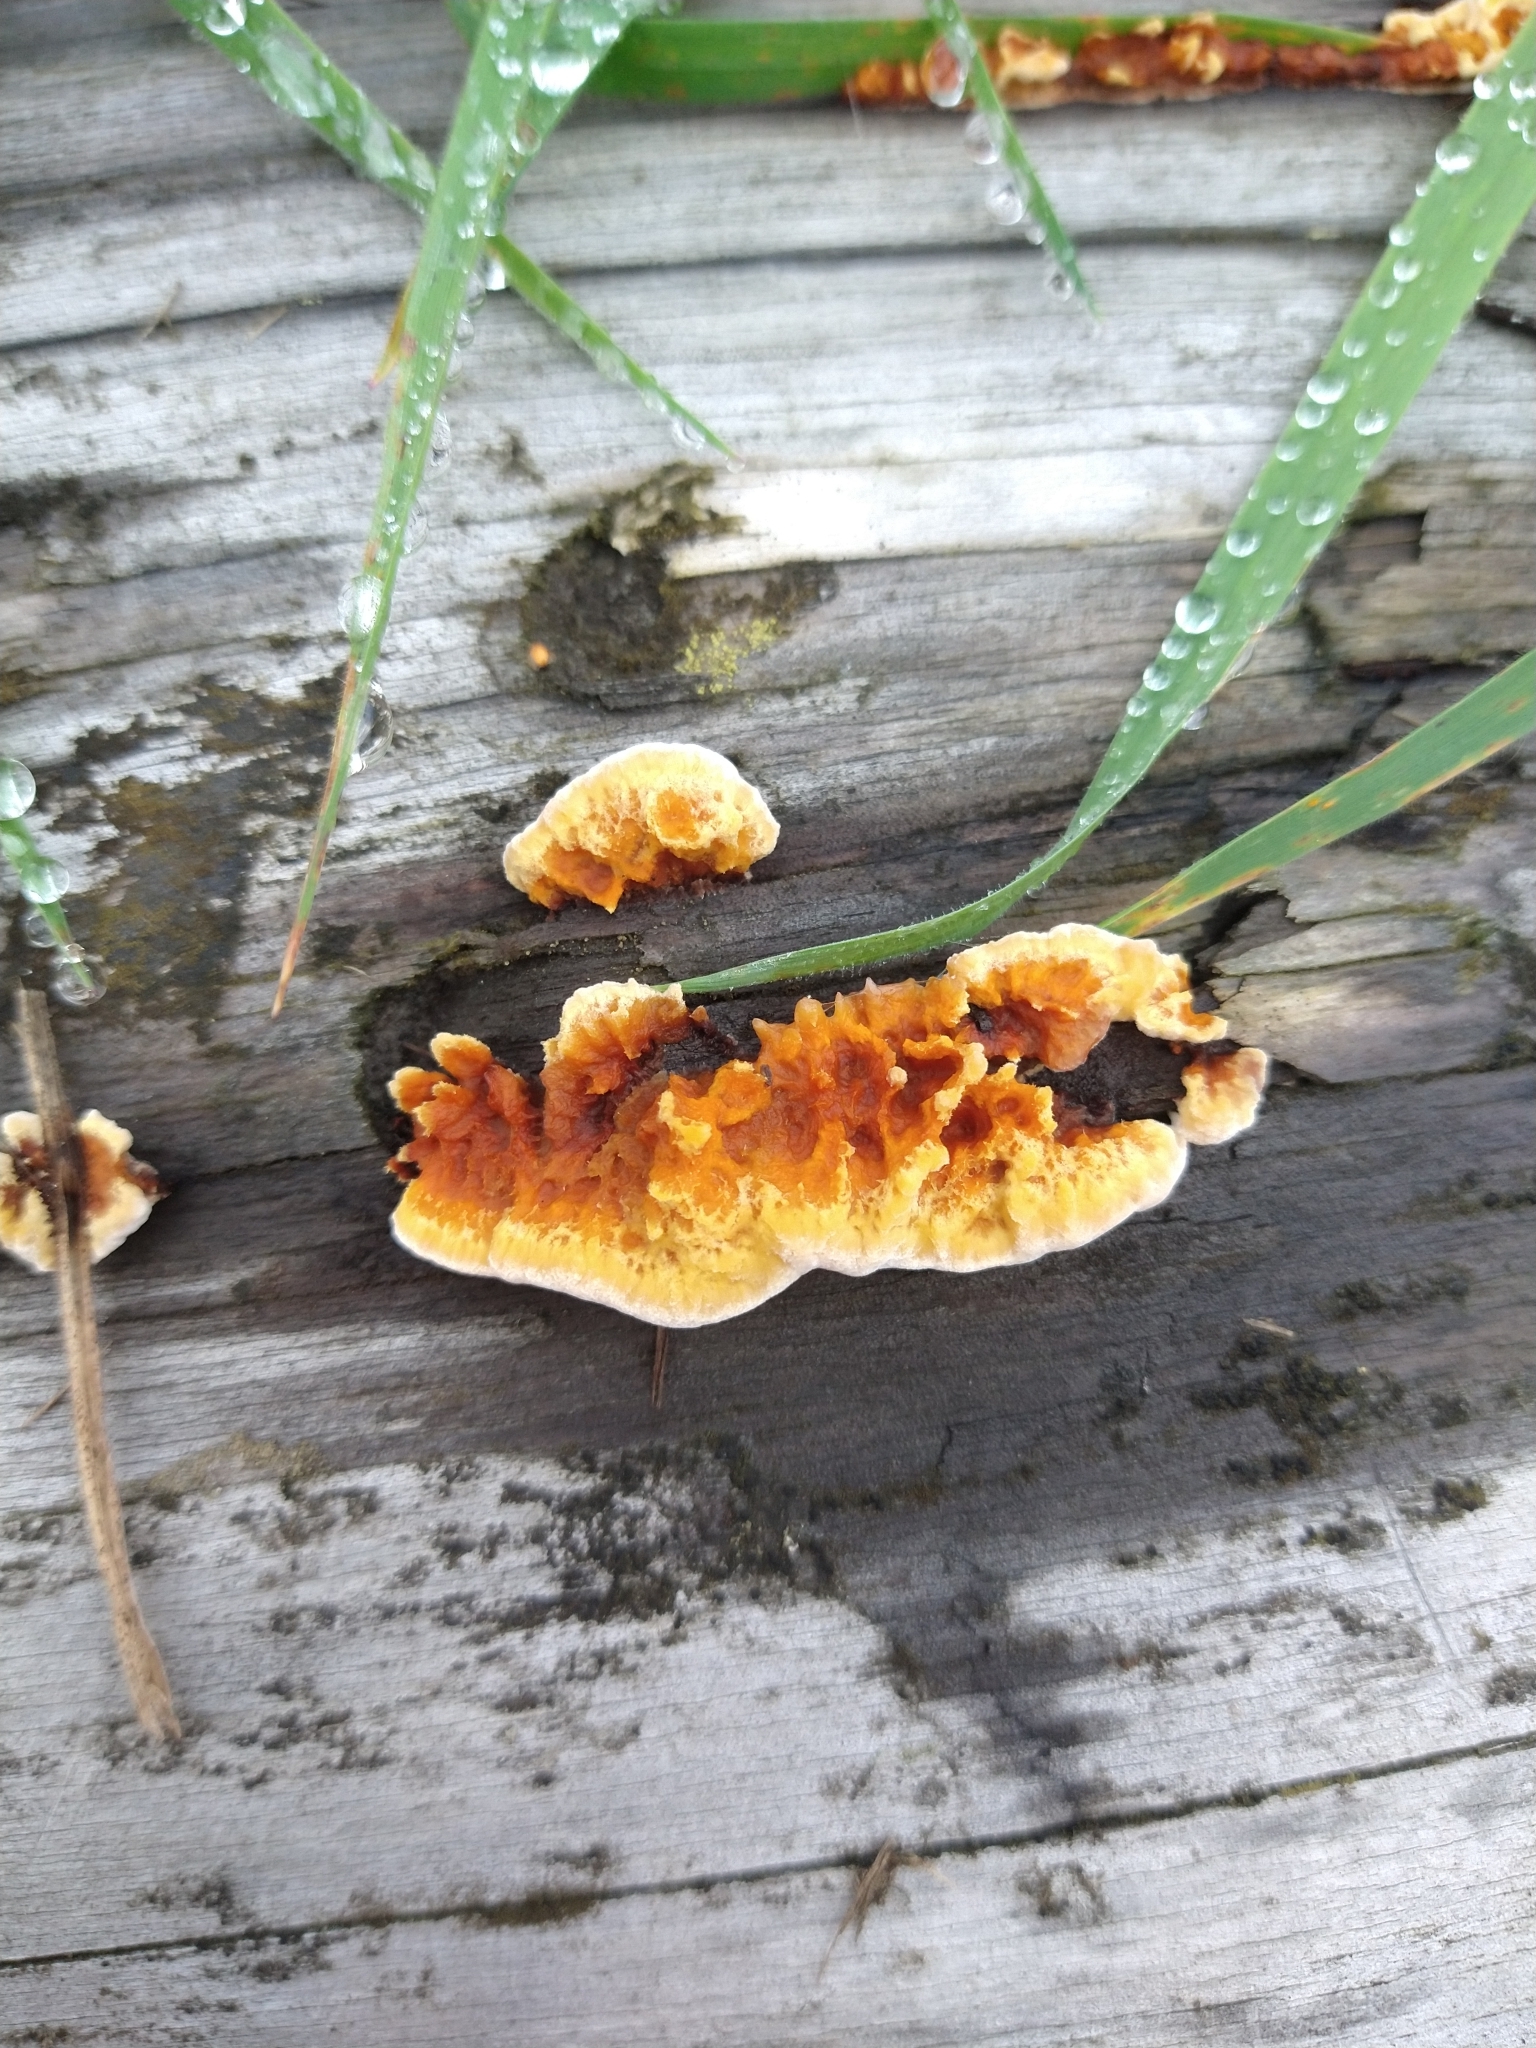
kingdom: Fungi
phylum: Basidiomycota
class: Agaricomycetes
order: Gloeophyllales
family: Gloeophyllaceae
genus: Gloeophyllum
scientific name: Gloeophyllum sepiarium
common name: Conifer mazegill
